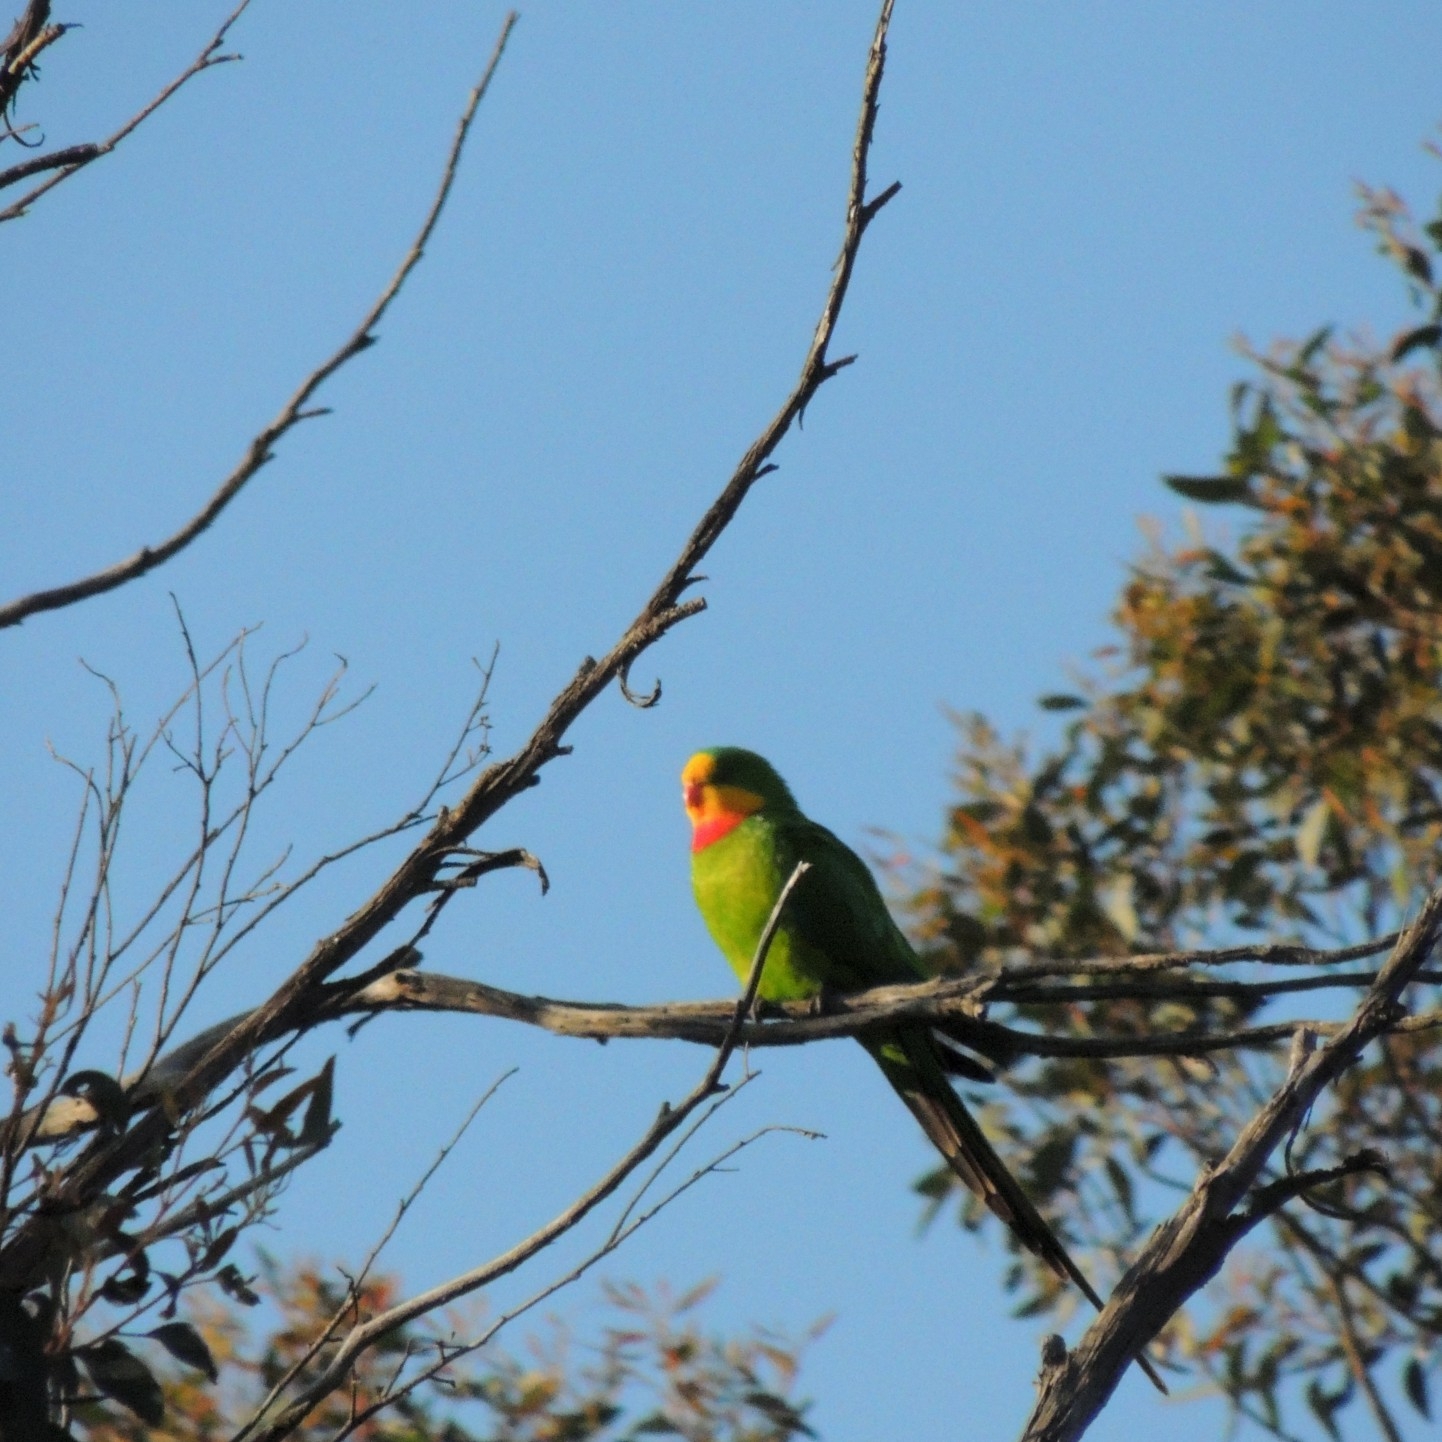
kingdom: Animalia
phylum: Chordata
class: Aves
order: Psittaciformes
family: Psittacidae
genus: Polytelis
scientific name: Polytelis swainsonii
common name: Superb parrot
